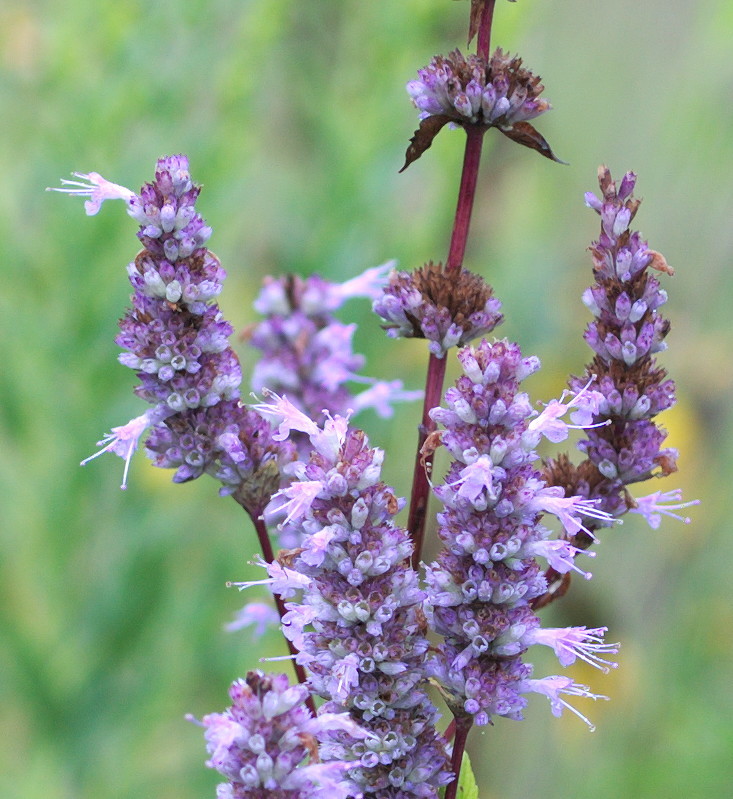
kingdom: Plantae
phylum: Tracheophyta
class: Magnoliopsida
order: Lamiales
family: Lamiaceae
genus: Agastache
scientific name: Agastache foeniculum
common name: Anise hyssop
